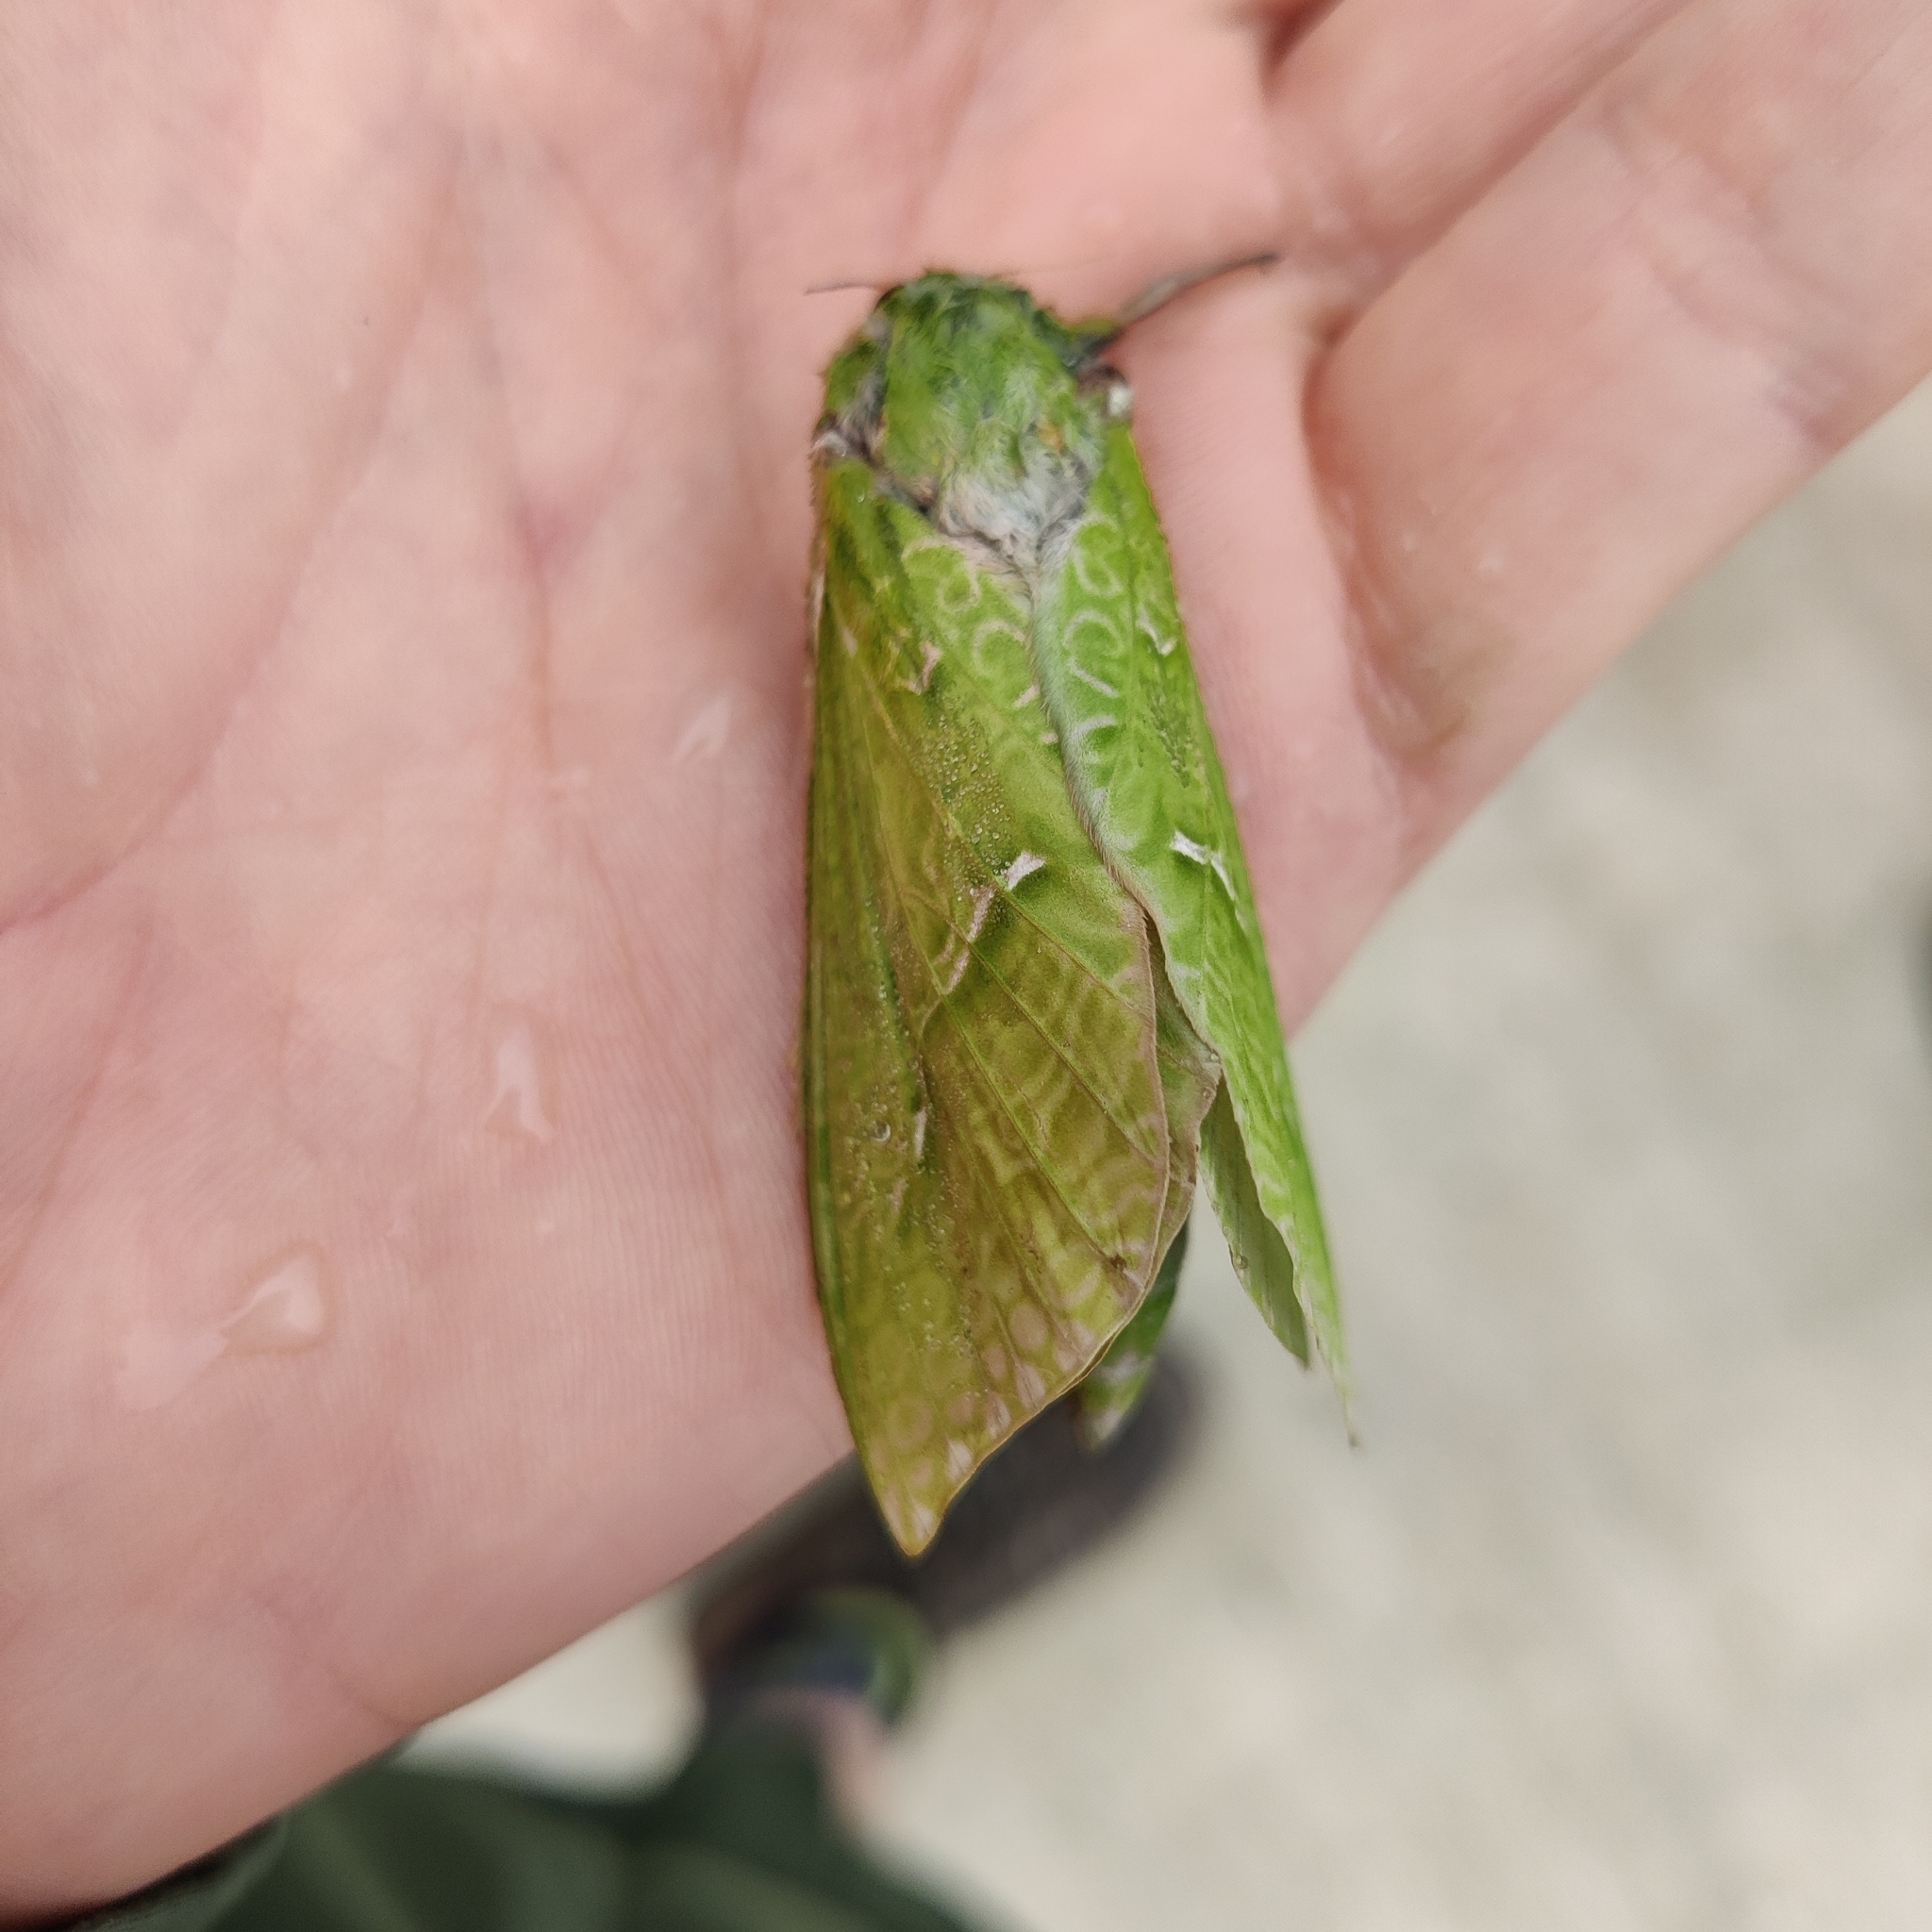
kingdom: Animalia
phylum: Arthropoda
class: Insecta
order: Lepidoptera
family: Hepialidae
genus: Aenetus
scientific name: Aenetus virescens
